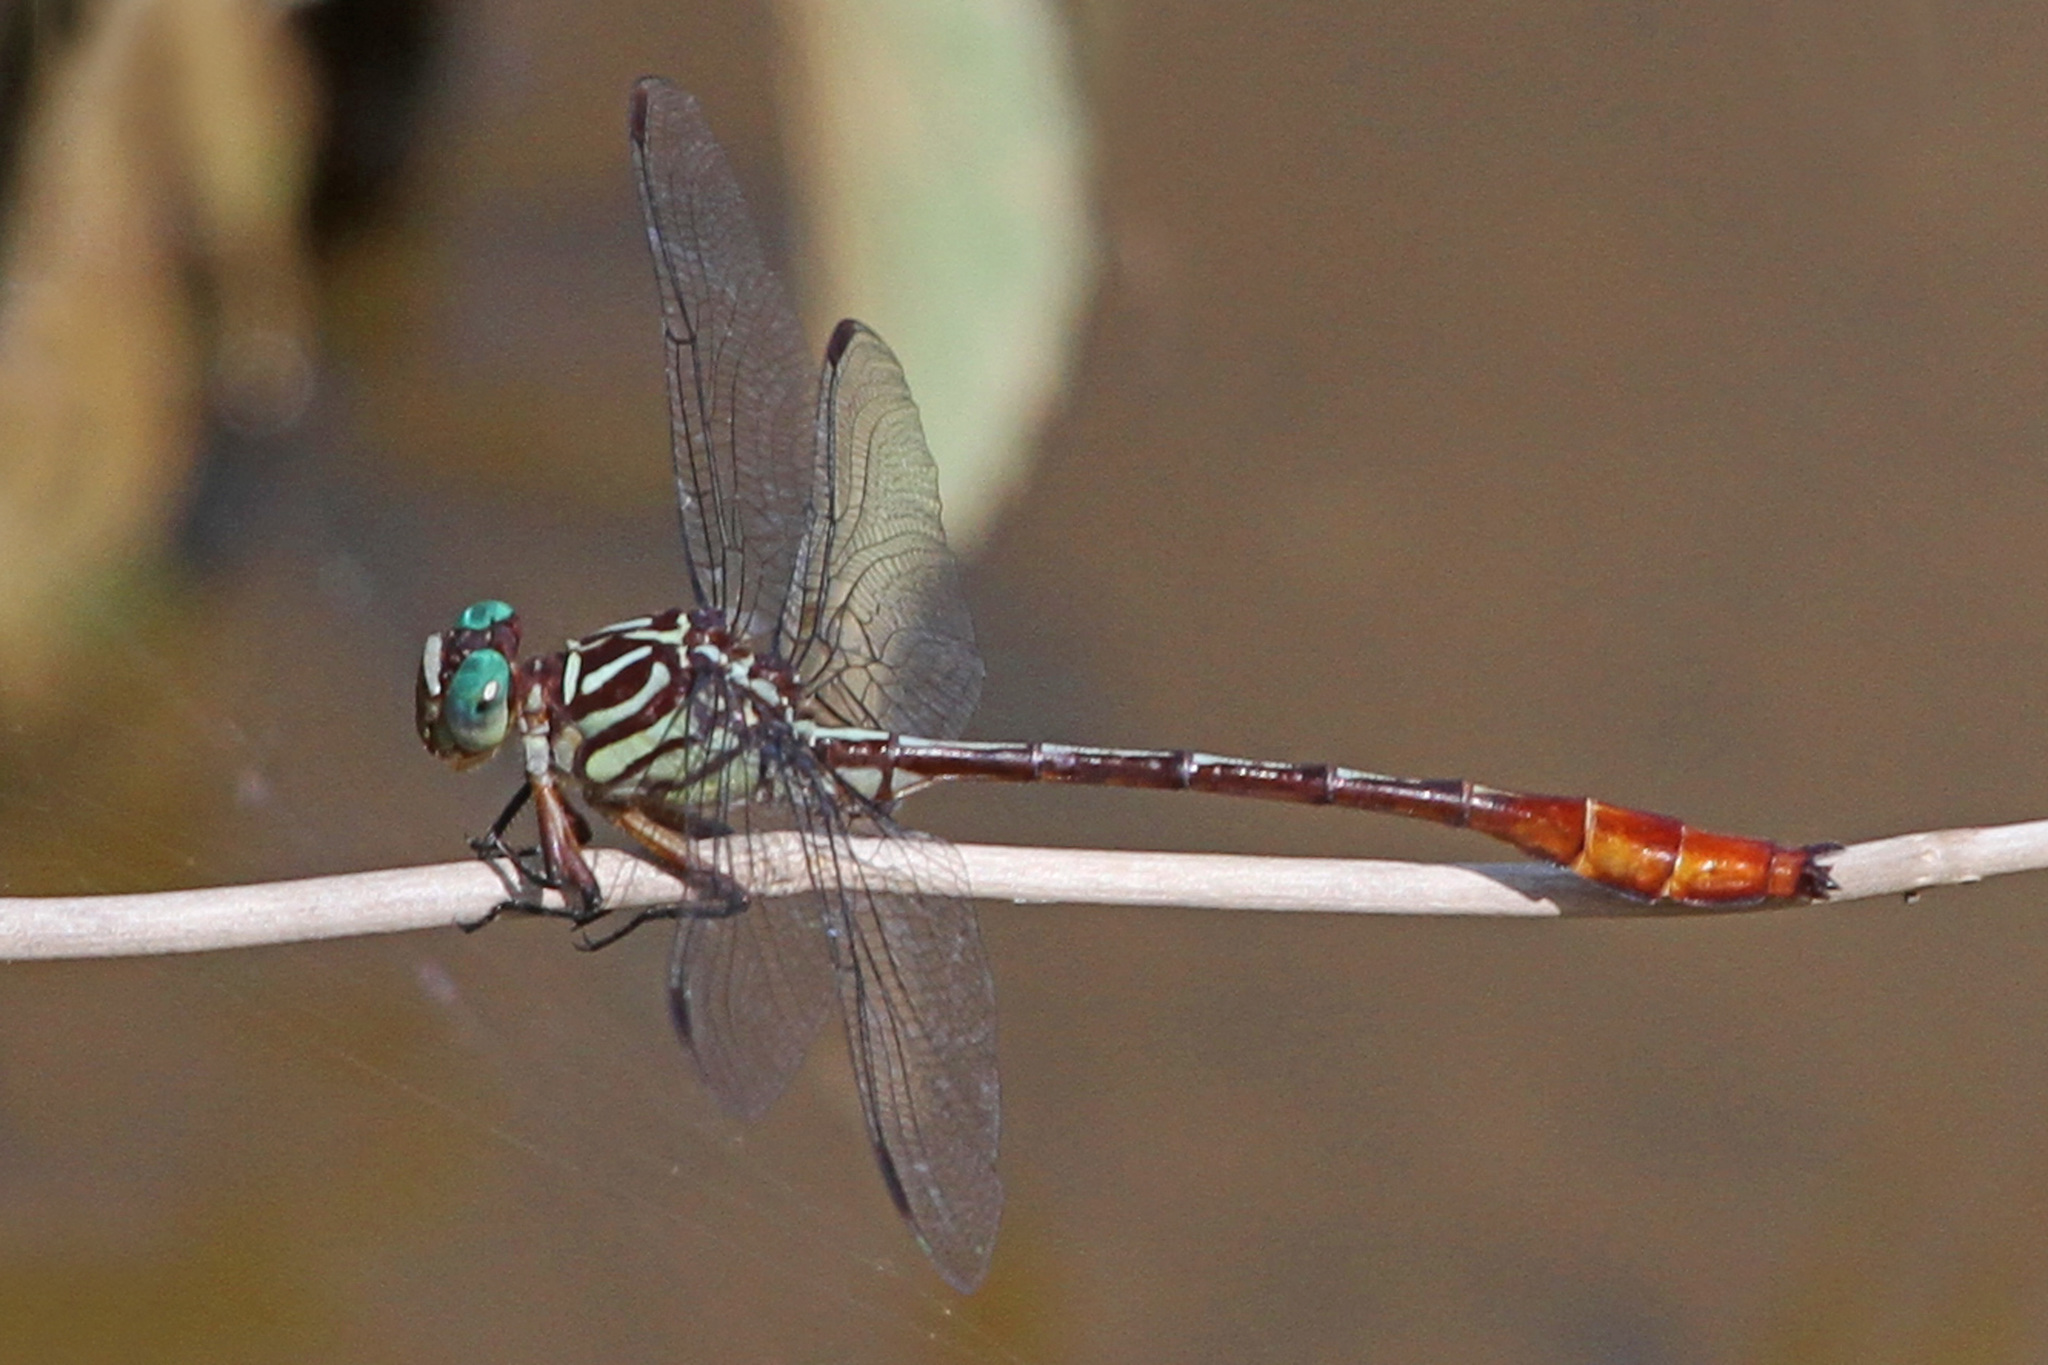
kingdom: Animalia
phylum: Arthropoda
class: Insecta
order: Odonata
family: Gomphidae
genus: Stylurus
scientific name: Stylurus plagiatus
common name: Russet-tipped clubtail
